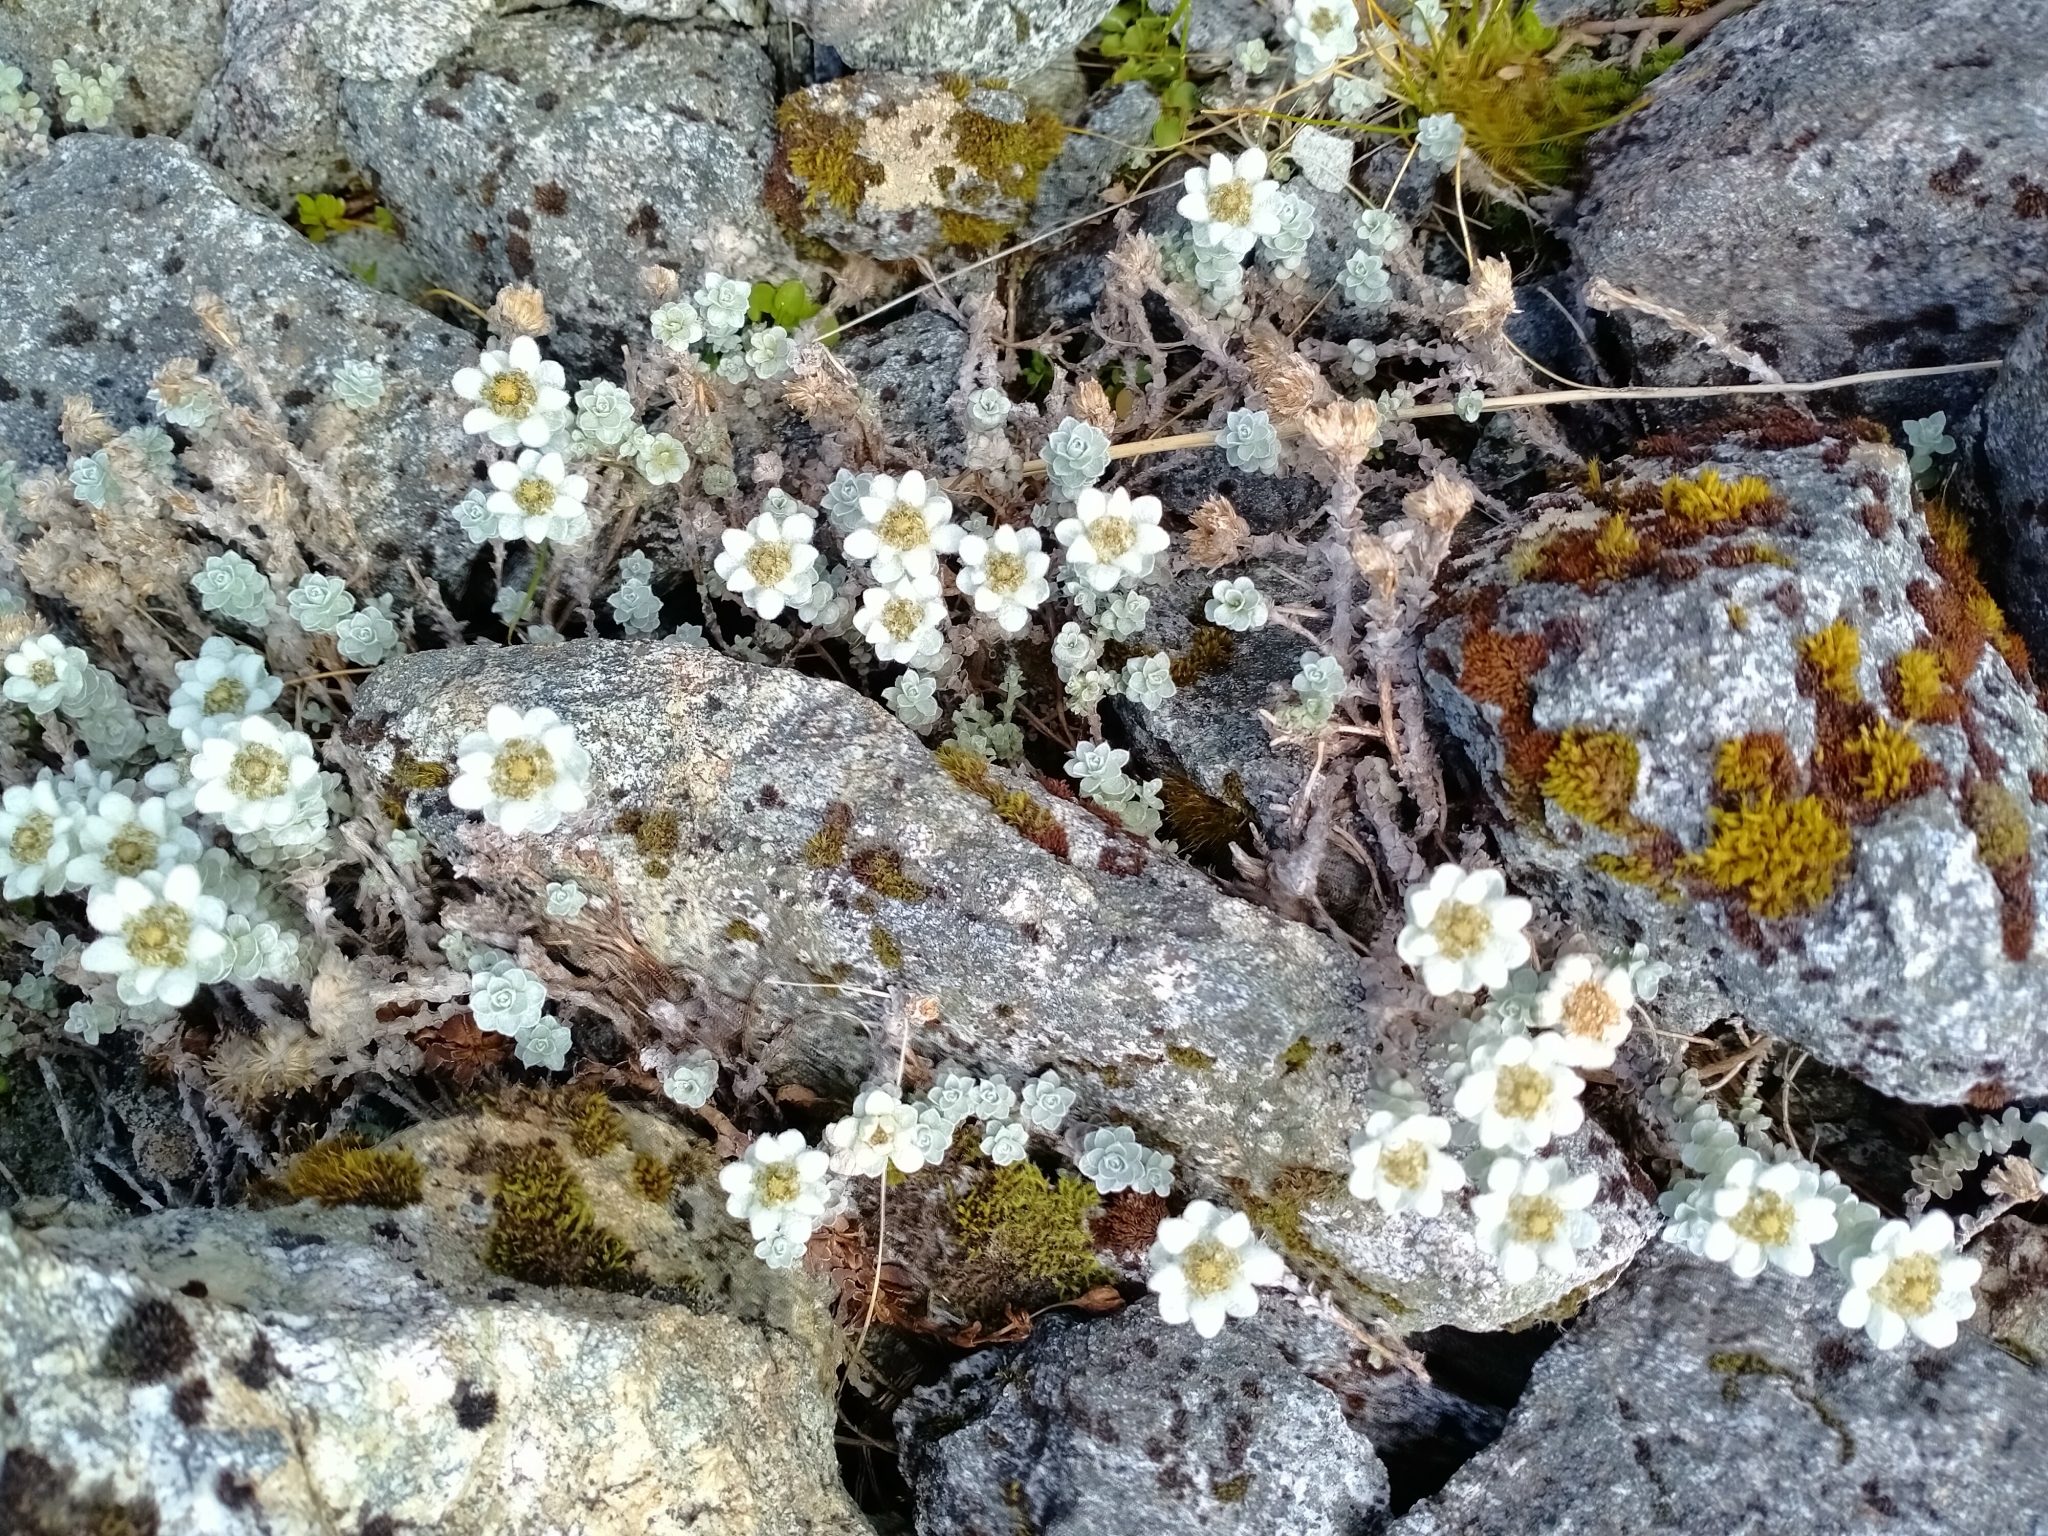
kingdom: Plantae
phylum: Tracheophyta
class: Magnoliopsida
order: Asterales
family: Asteraceae
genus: Leucogenes
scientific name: Leucogenes grandiceps
